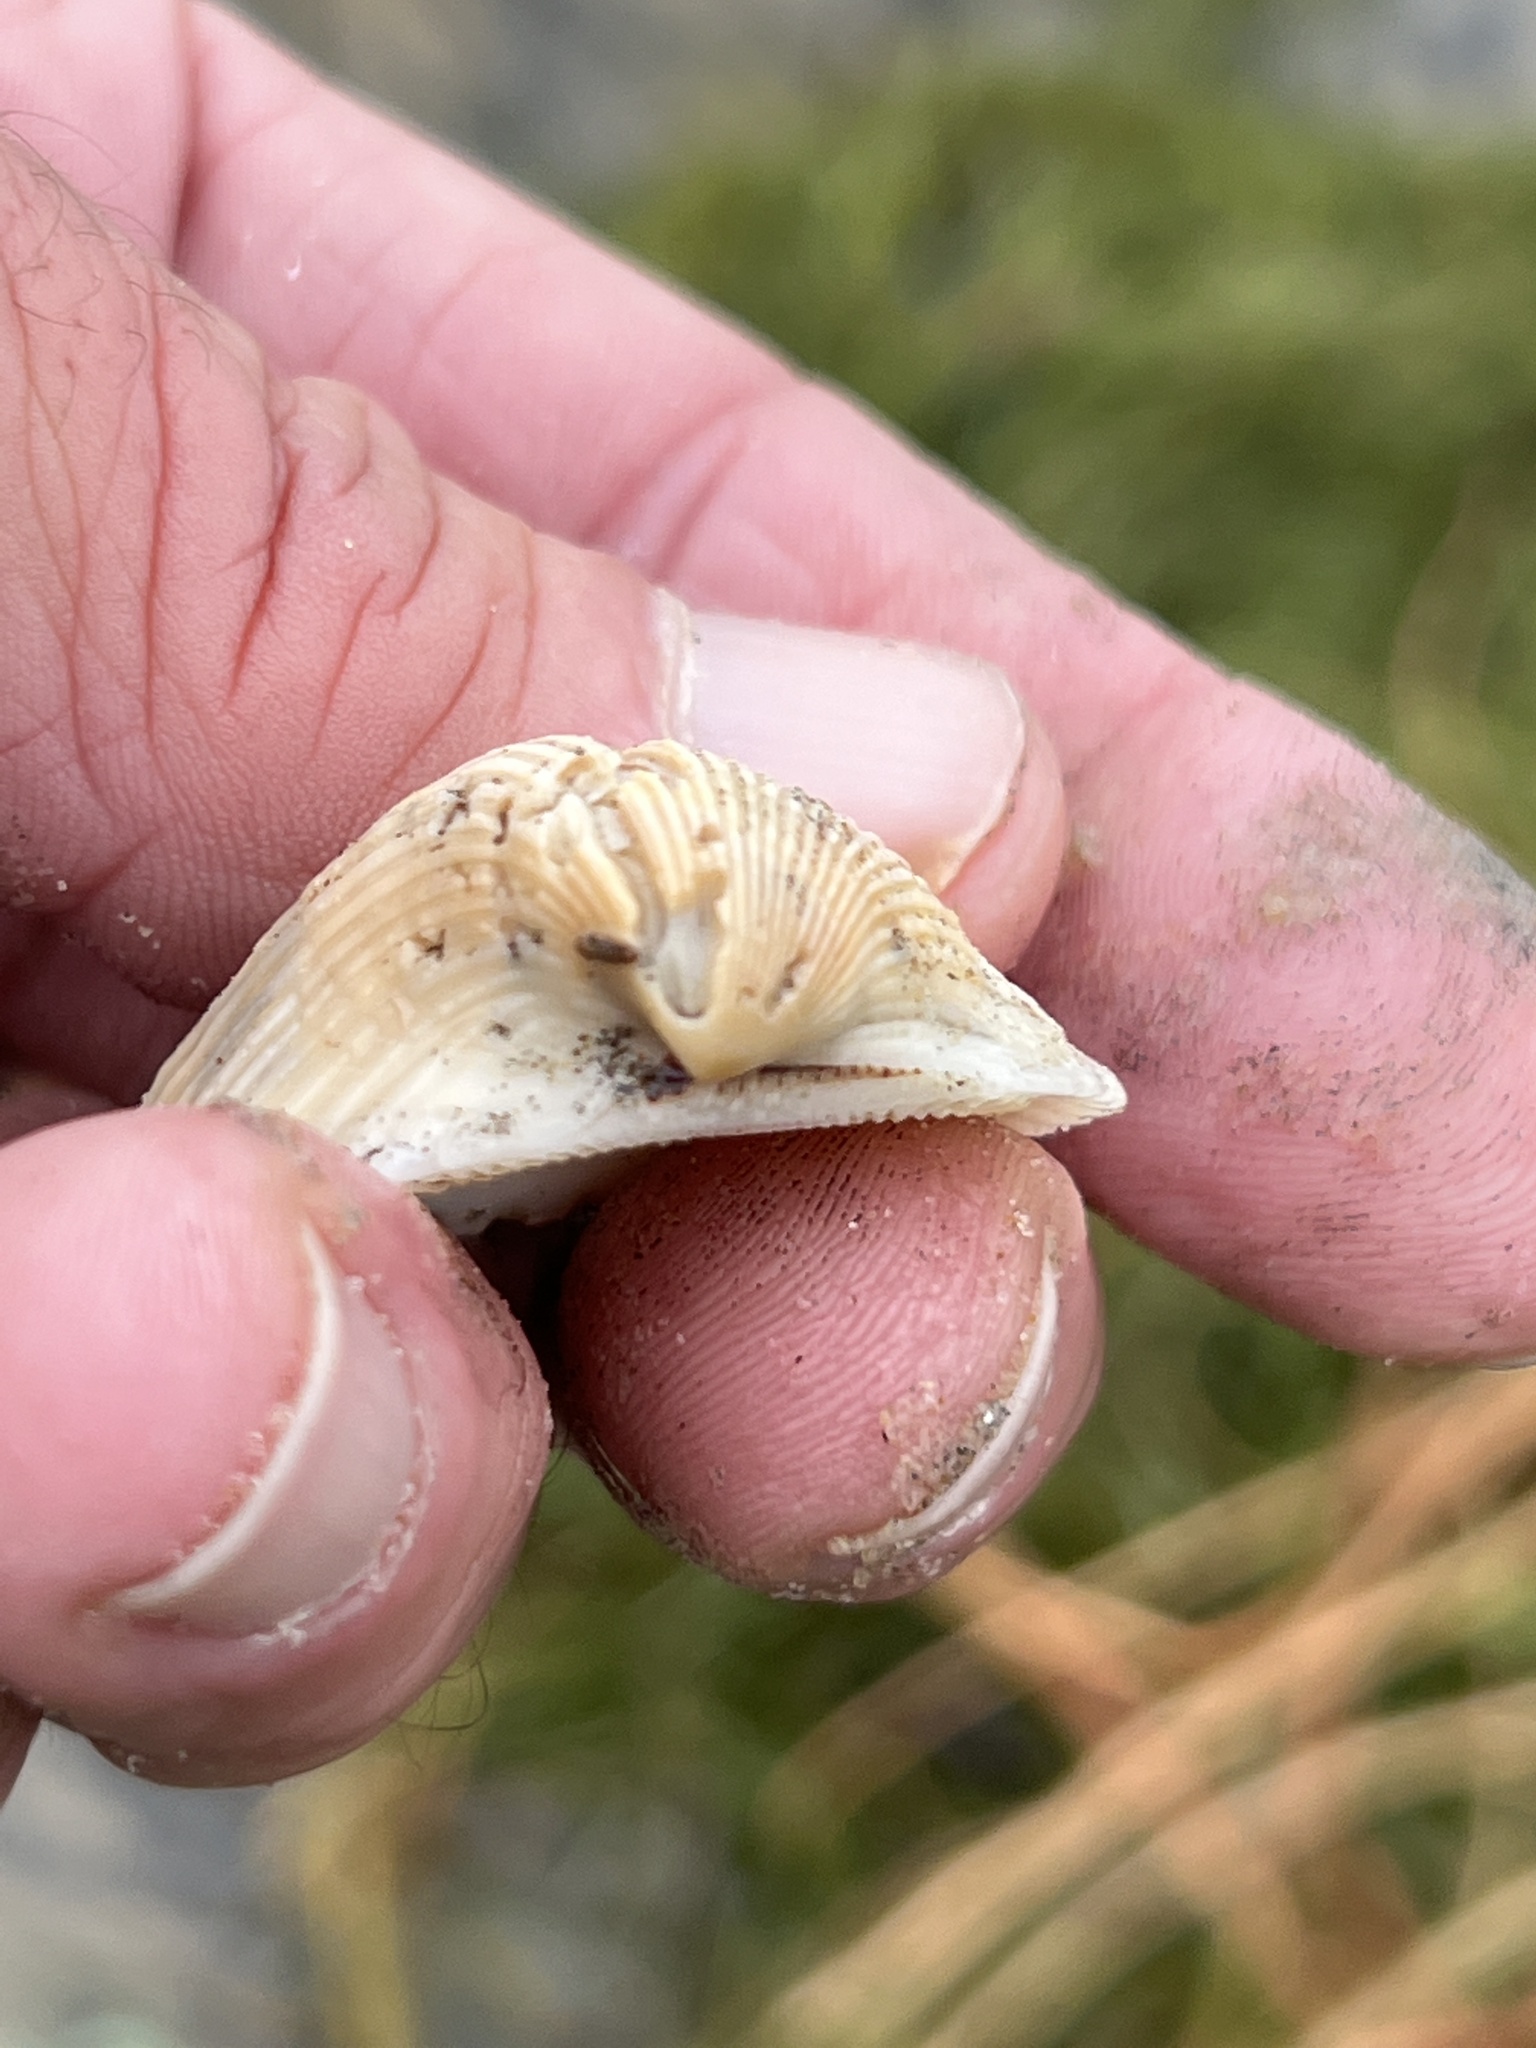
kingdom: Animalia
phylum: Mollusca
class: Bivalvia
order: Arcida
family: Noetiidae
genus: Noetia
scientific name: Noetia ponderosa
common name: Ponderous ark
